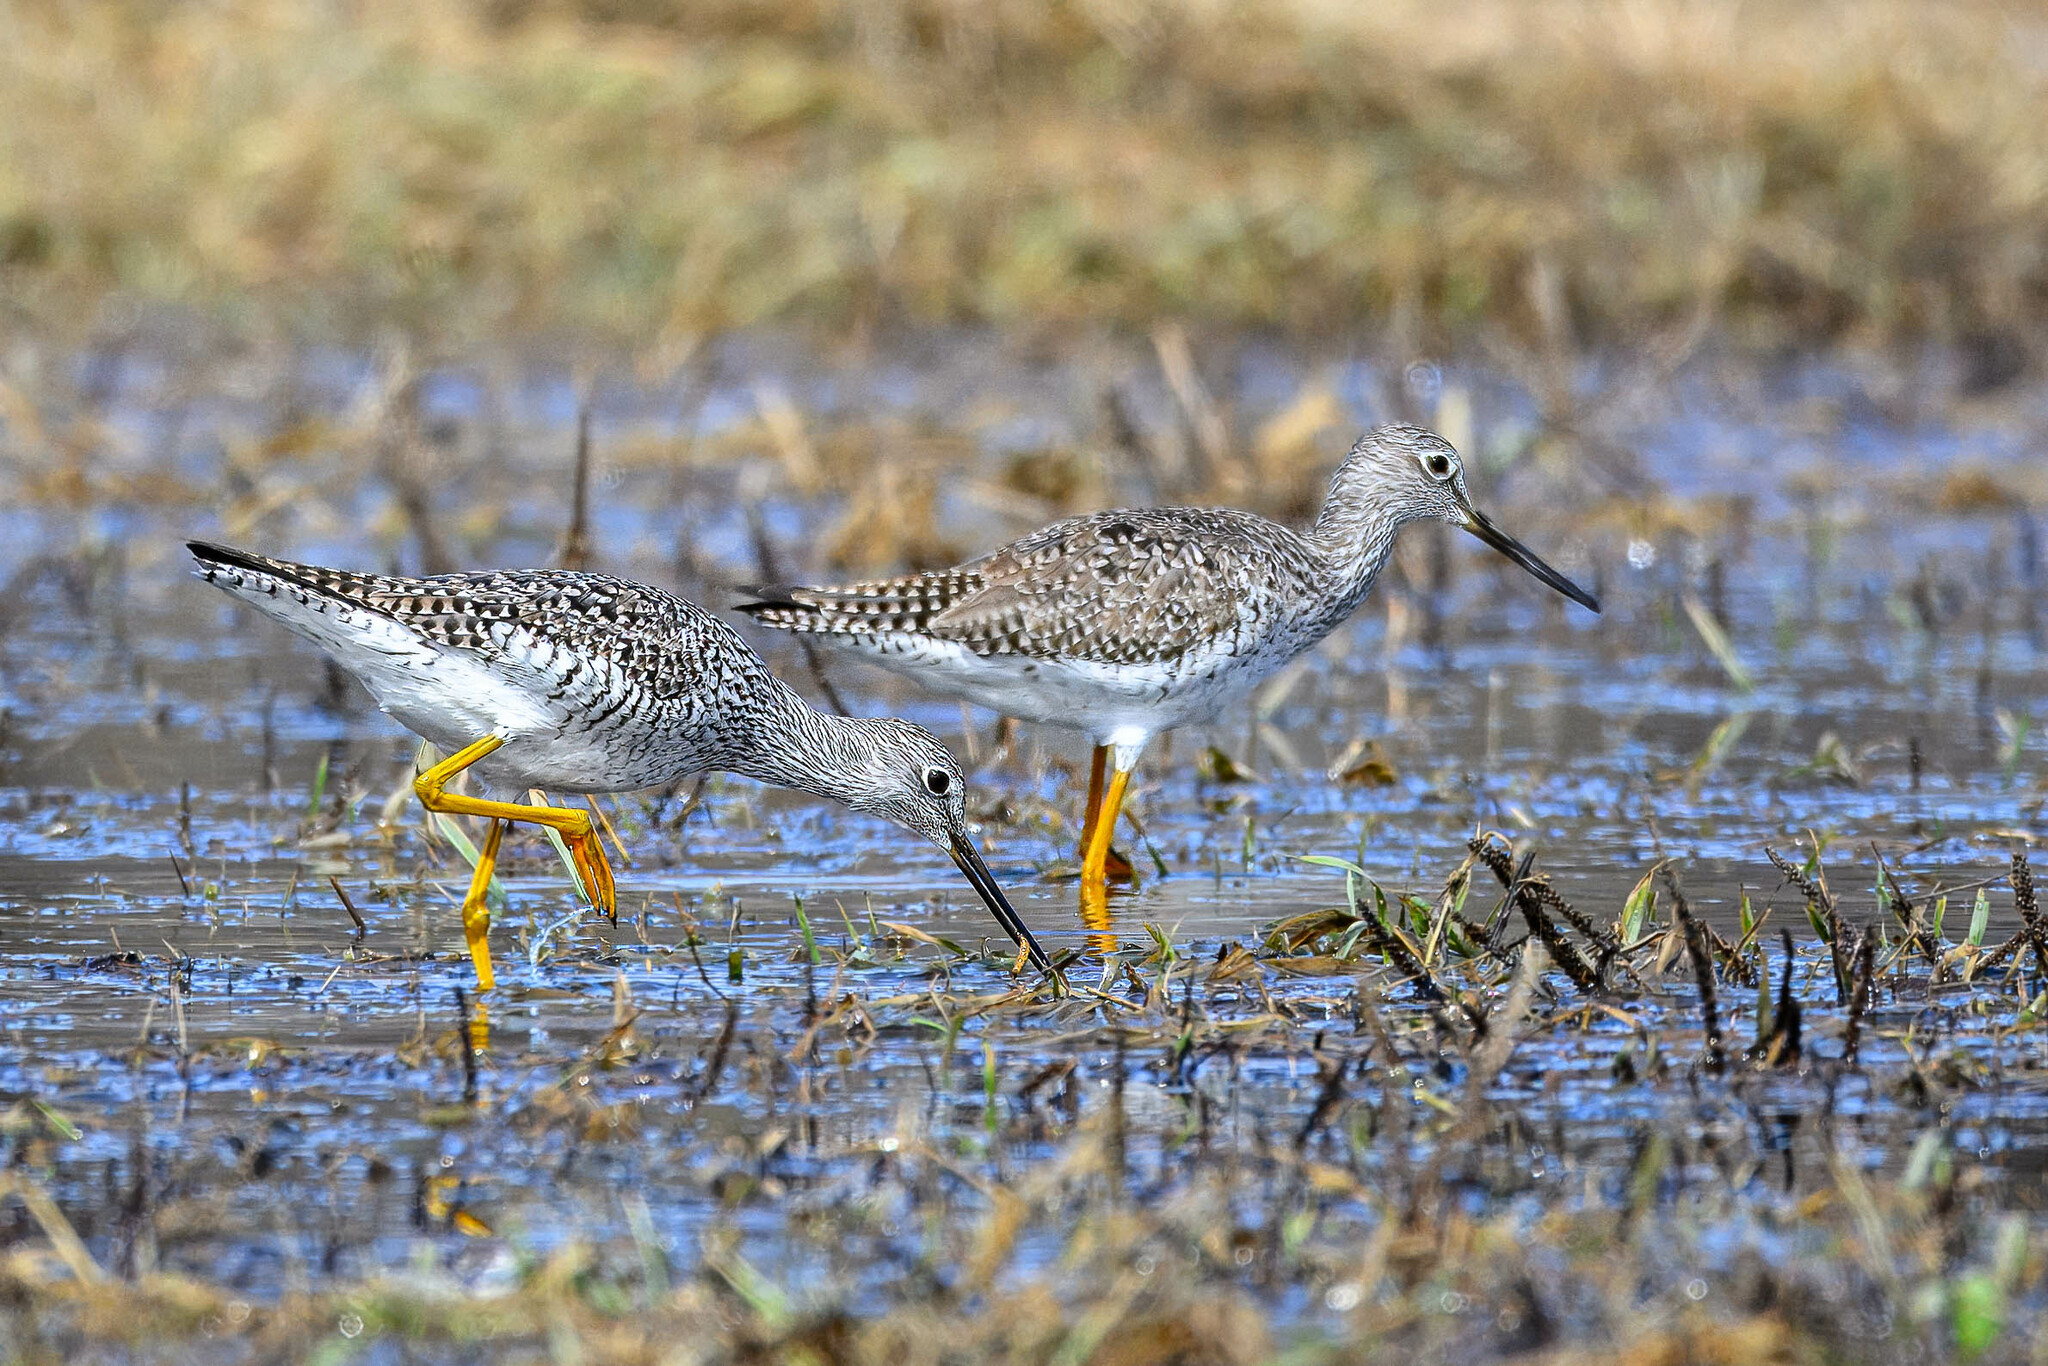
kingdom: Animalia
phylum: Chordata
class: Aves
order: Charadriiformes
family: Scolopacidae
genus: Tringa
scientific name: Tringa melanoleuca
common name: Greater yellowlegs
